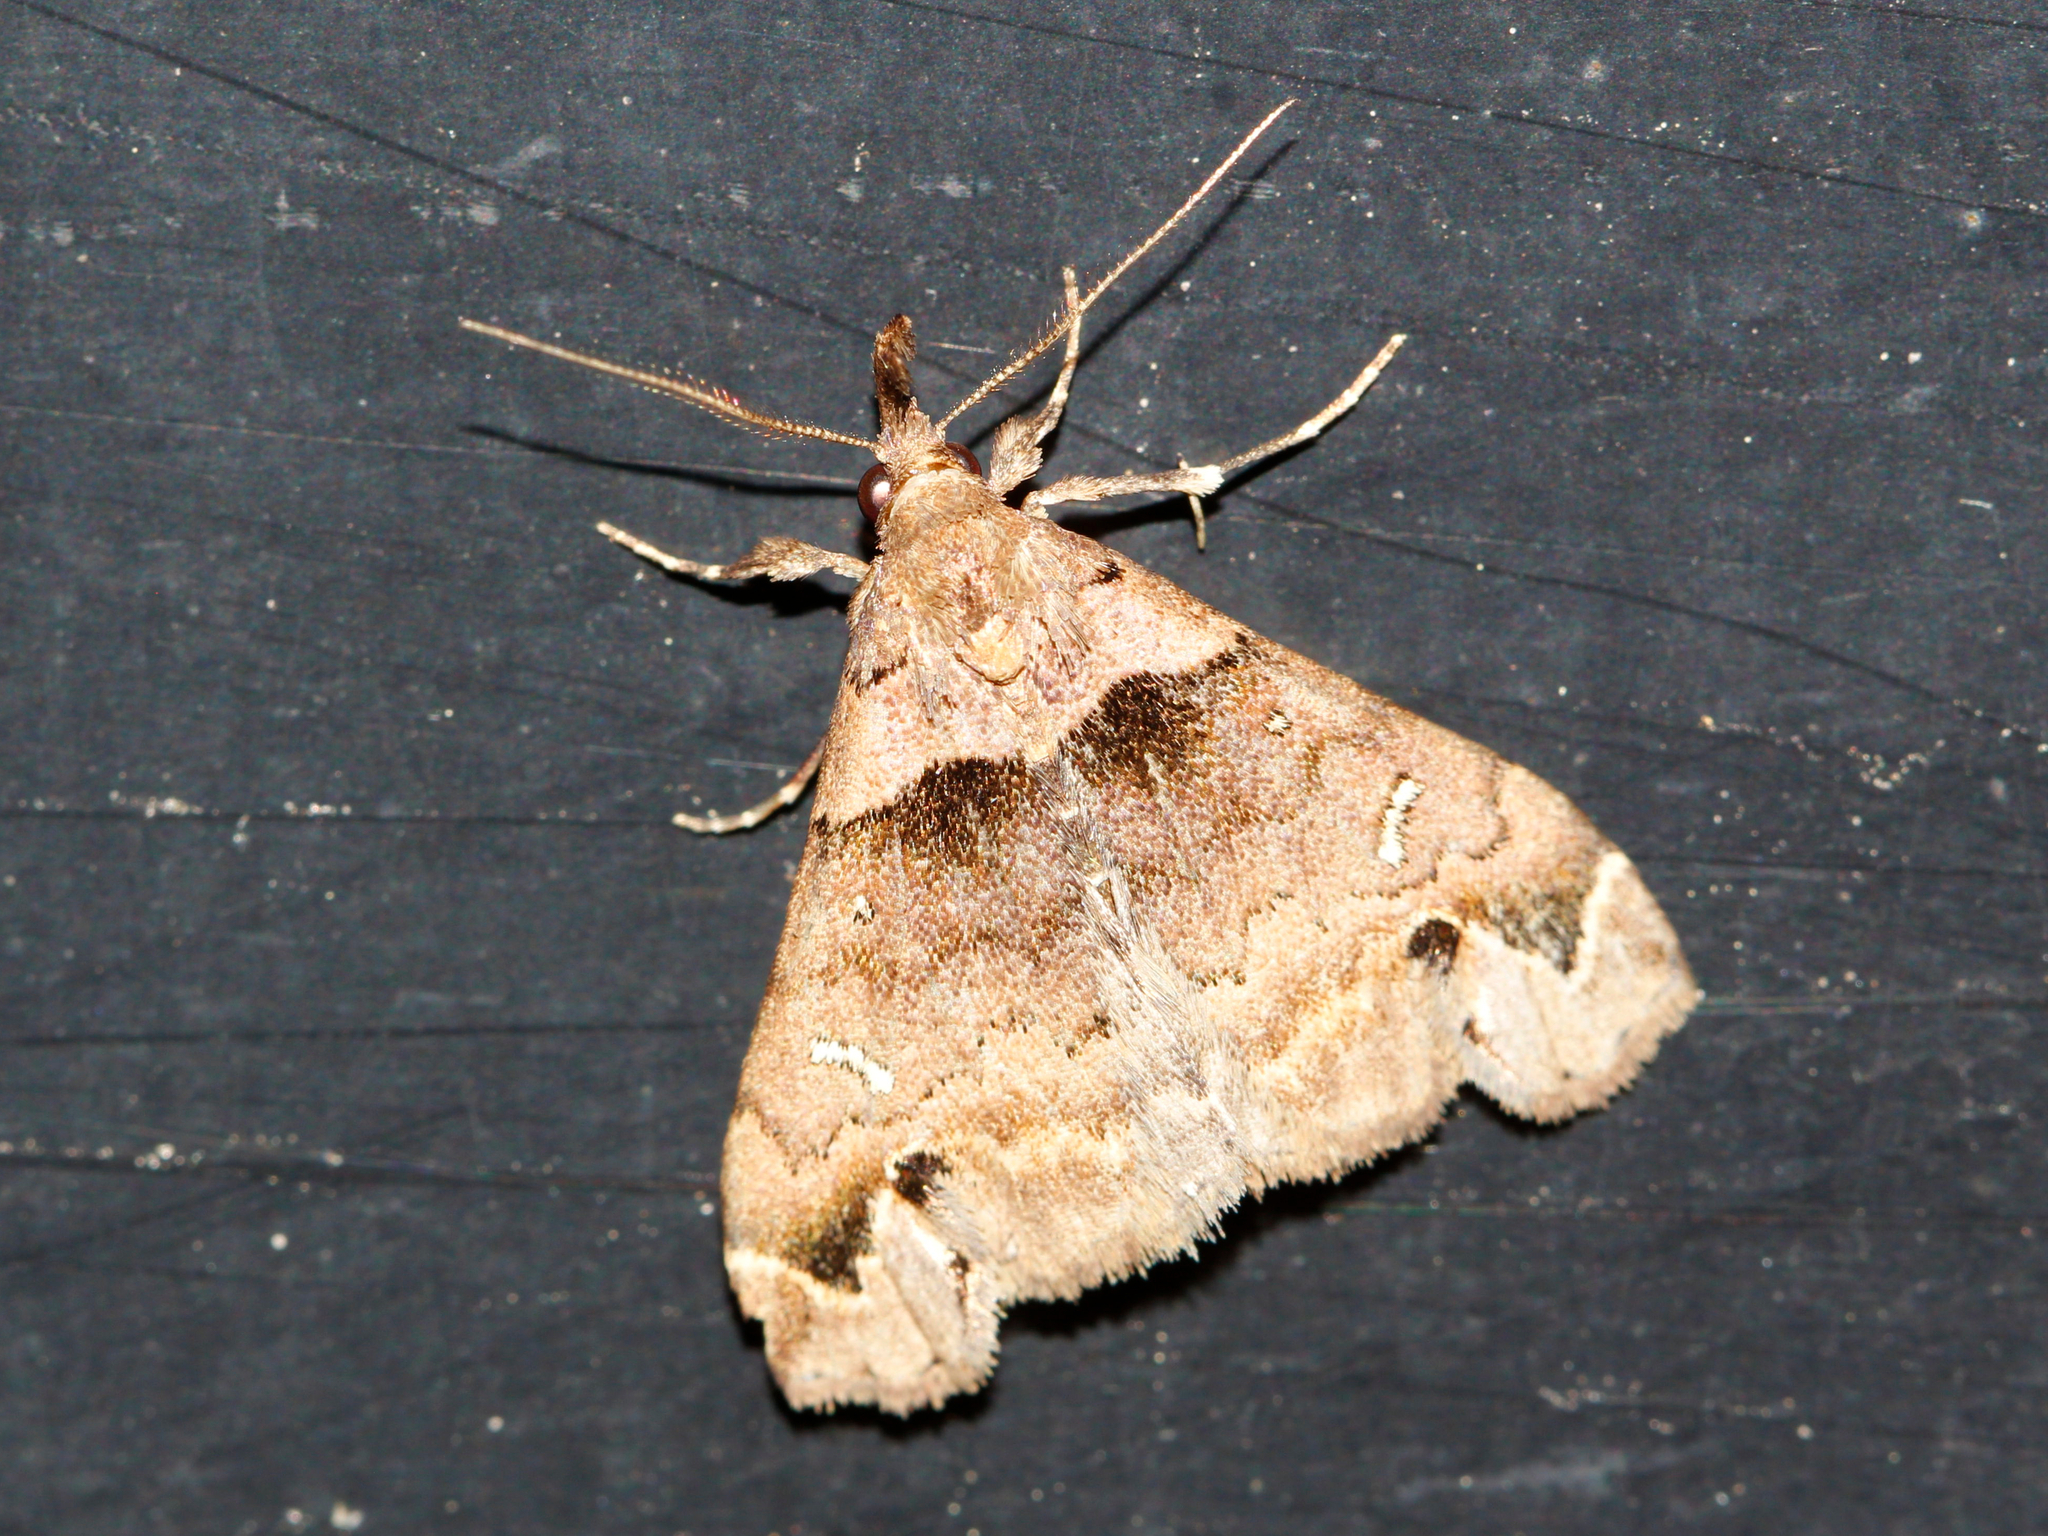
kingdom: Animalia
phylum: Arthropoda
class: Insecta
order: Lepidoptera
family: Erebidae
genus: Lascoria
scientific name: Lascoria ambigualis
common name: Ambiguous moth
